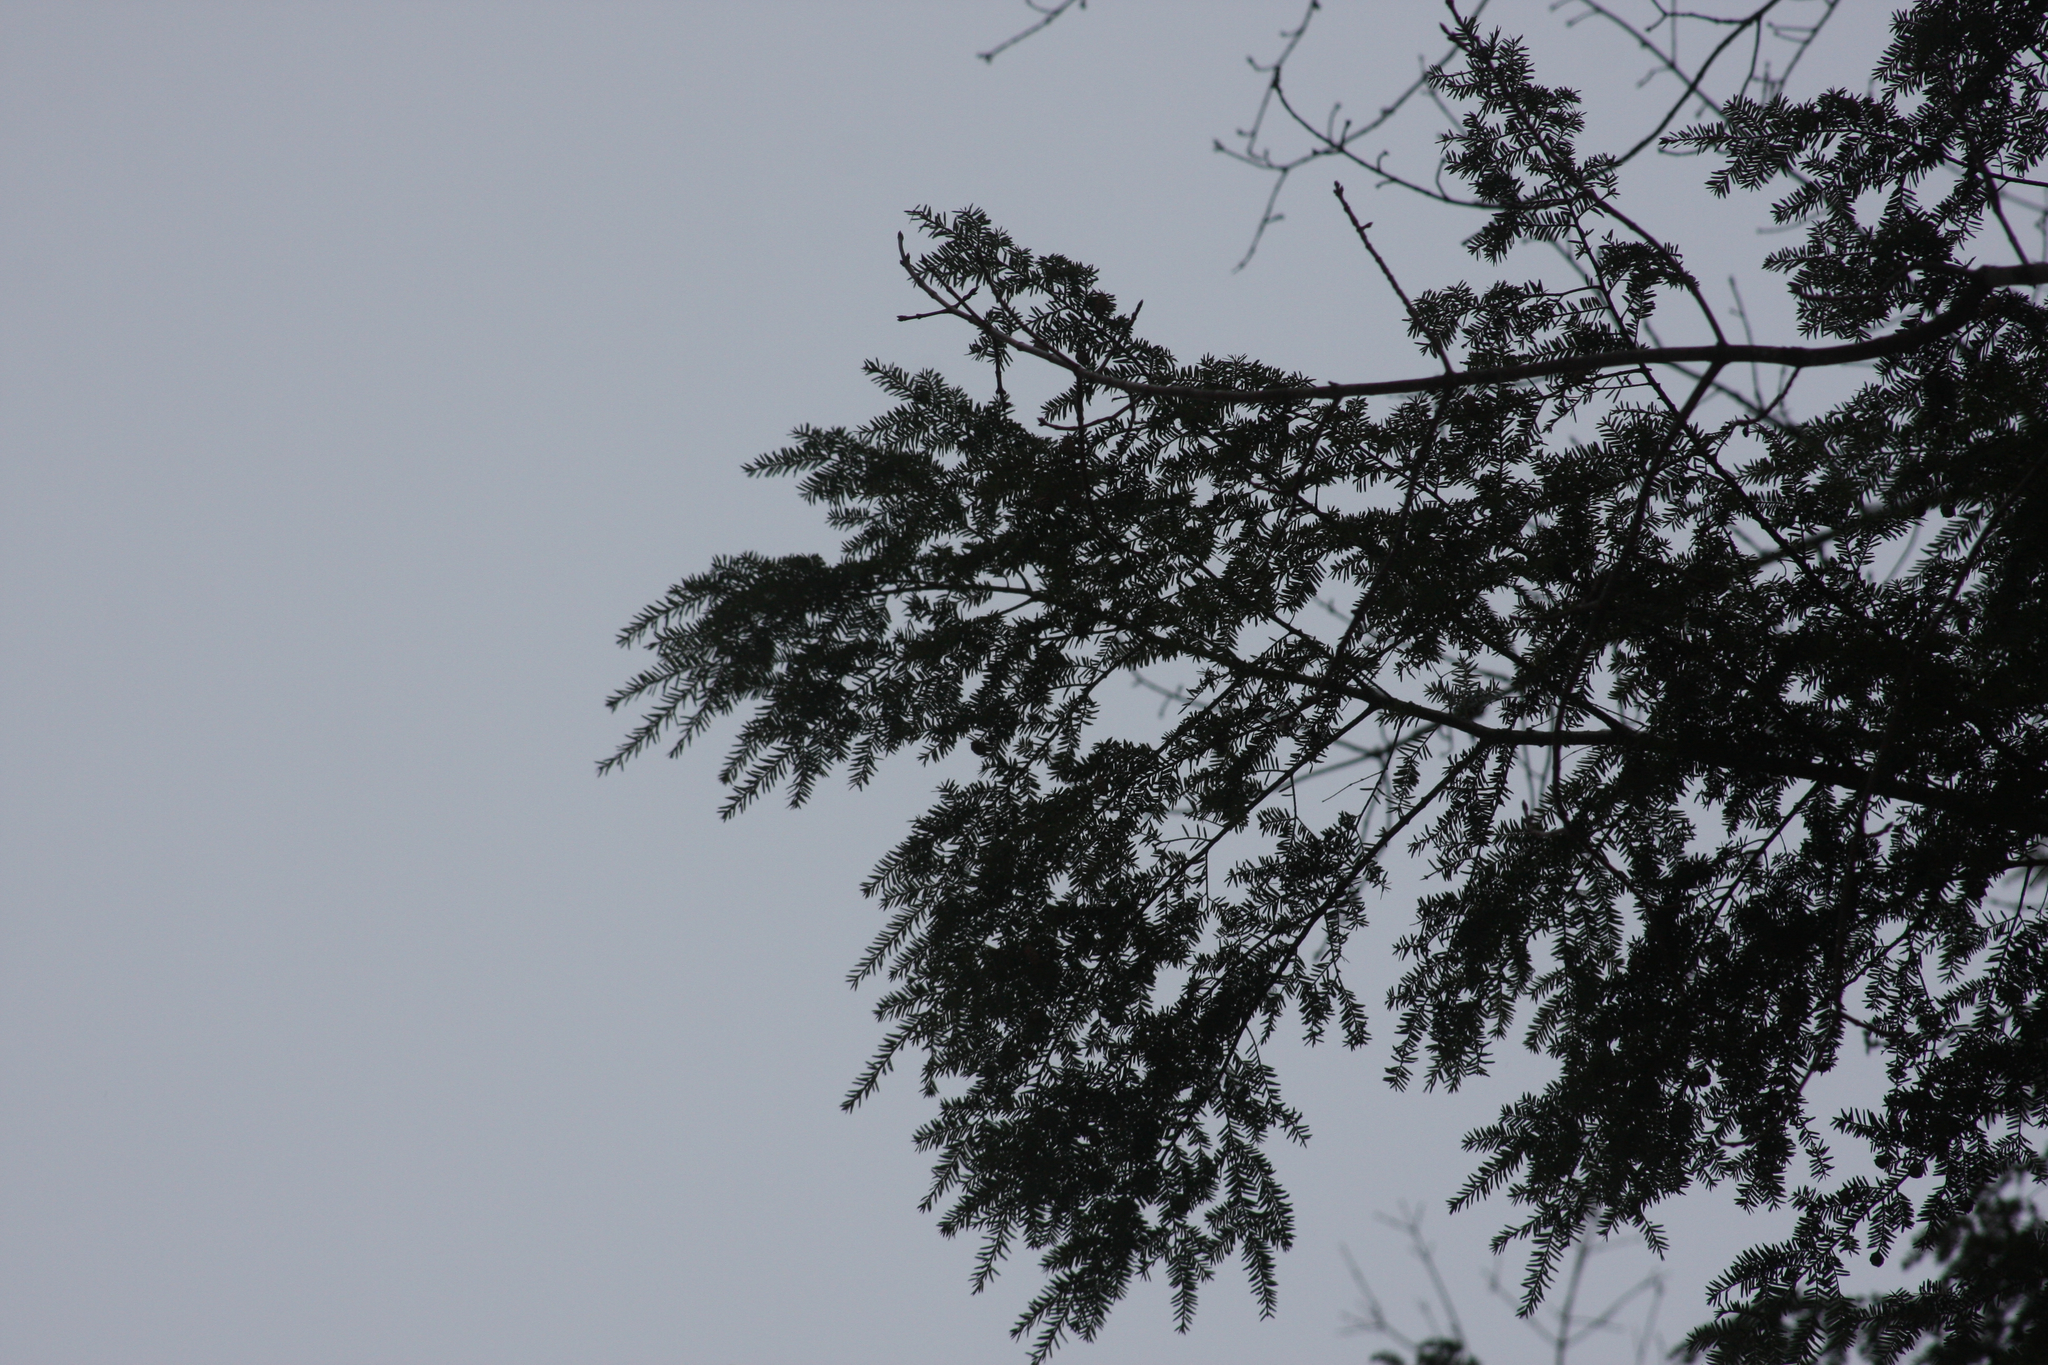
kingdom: Plantae
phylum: Tracheophyta
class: Pinopsida
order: Pinales
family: Pinaceae
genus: Tsuga
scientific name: Tsuga canadensis
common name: Eastern hemlock
